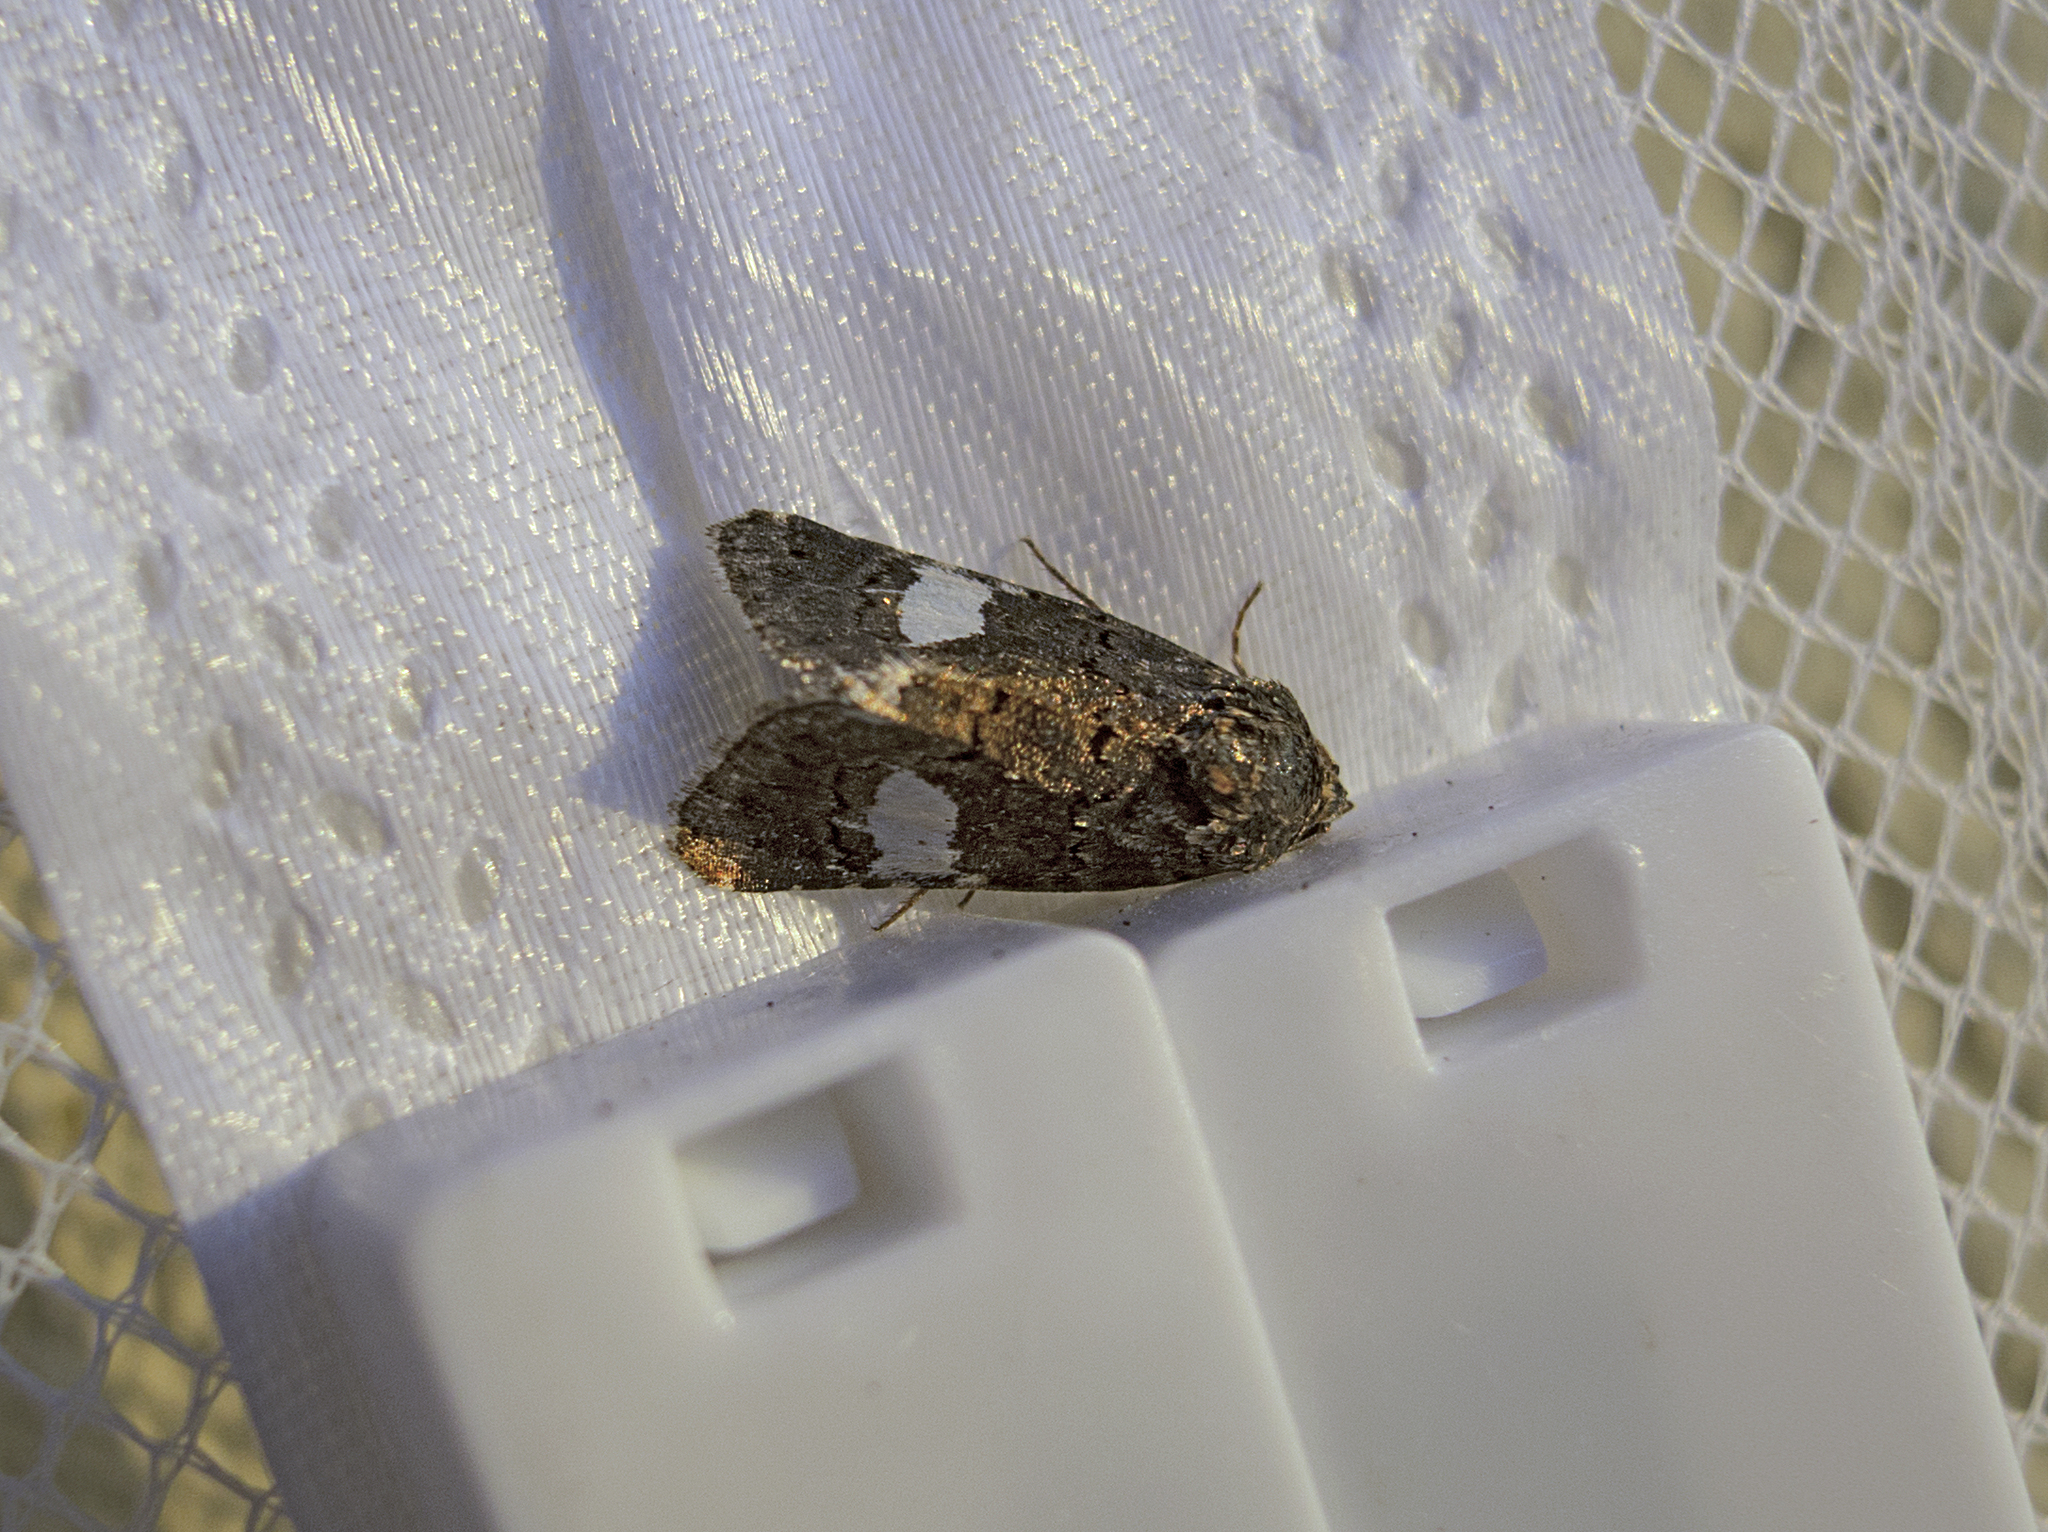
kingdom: Animalia
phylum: Arthropoda
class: Insecta
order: Lepidoptera
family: Erebidae
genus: Tyta
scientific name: Tyta luctuosa
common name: Four-spotted
